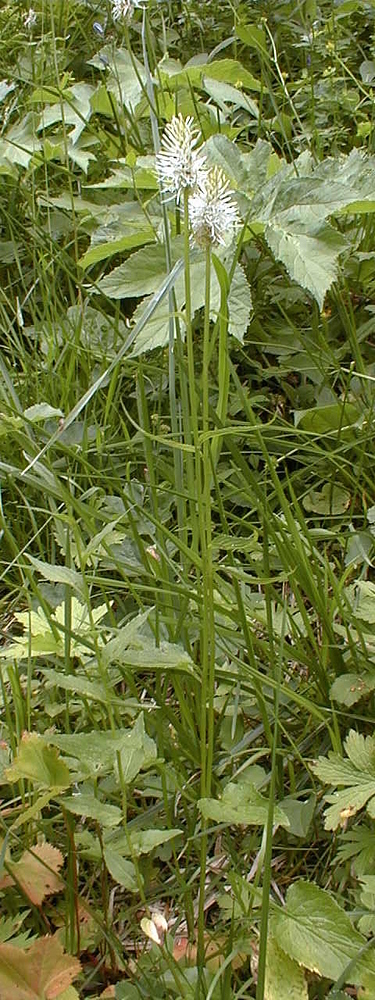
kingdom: Plantae
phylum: Tracheophyta
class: Magnoliopsida
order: Asterales
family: Campanulaceae
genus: Phyteuma
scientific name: Phyteuma spicatum
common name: Spiked rampion
